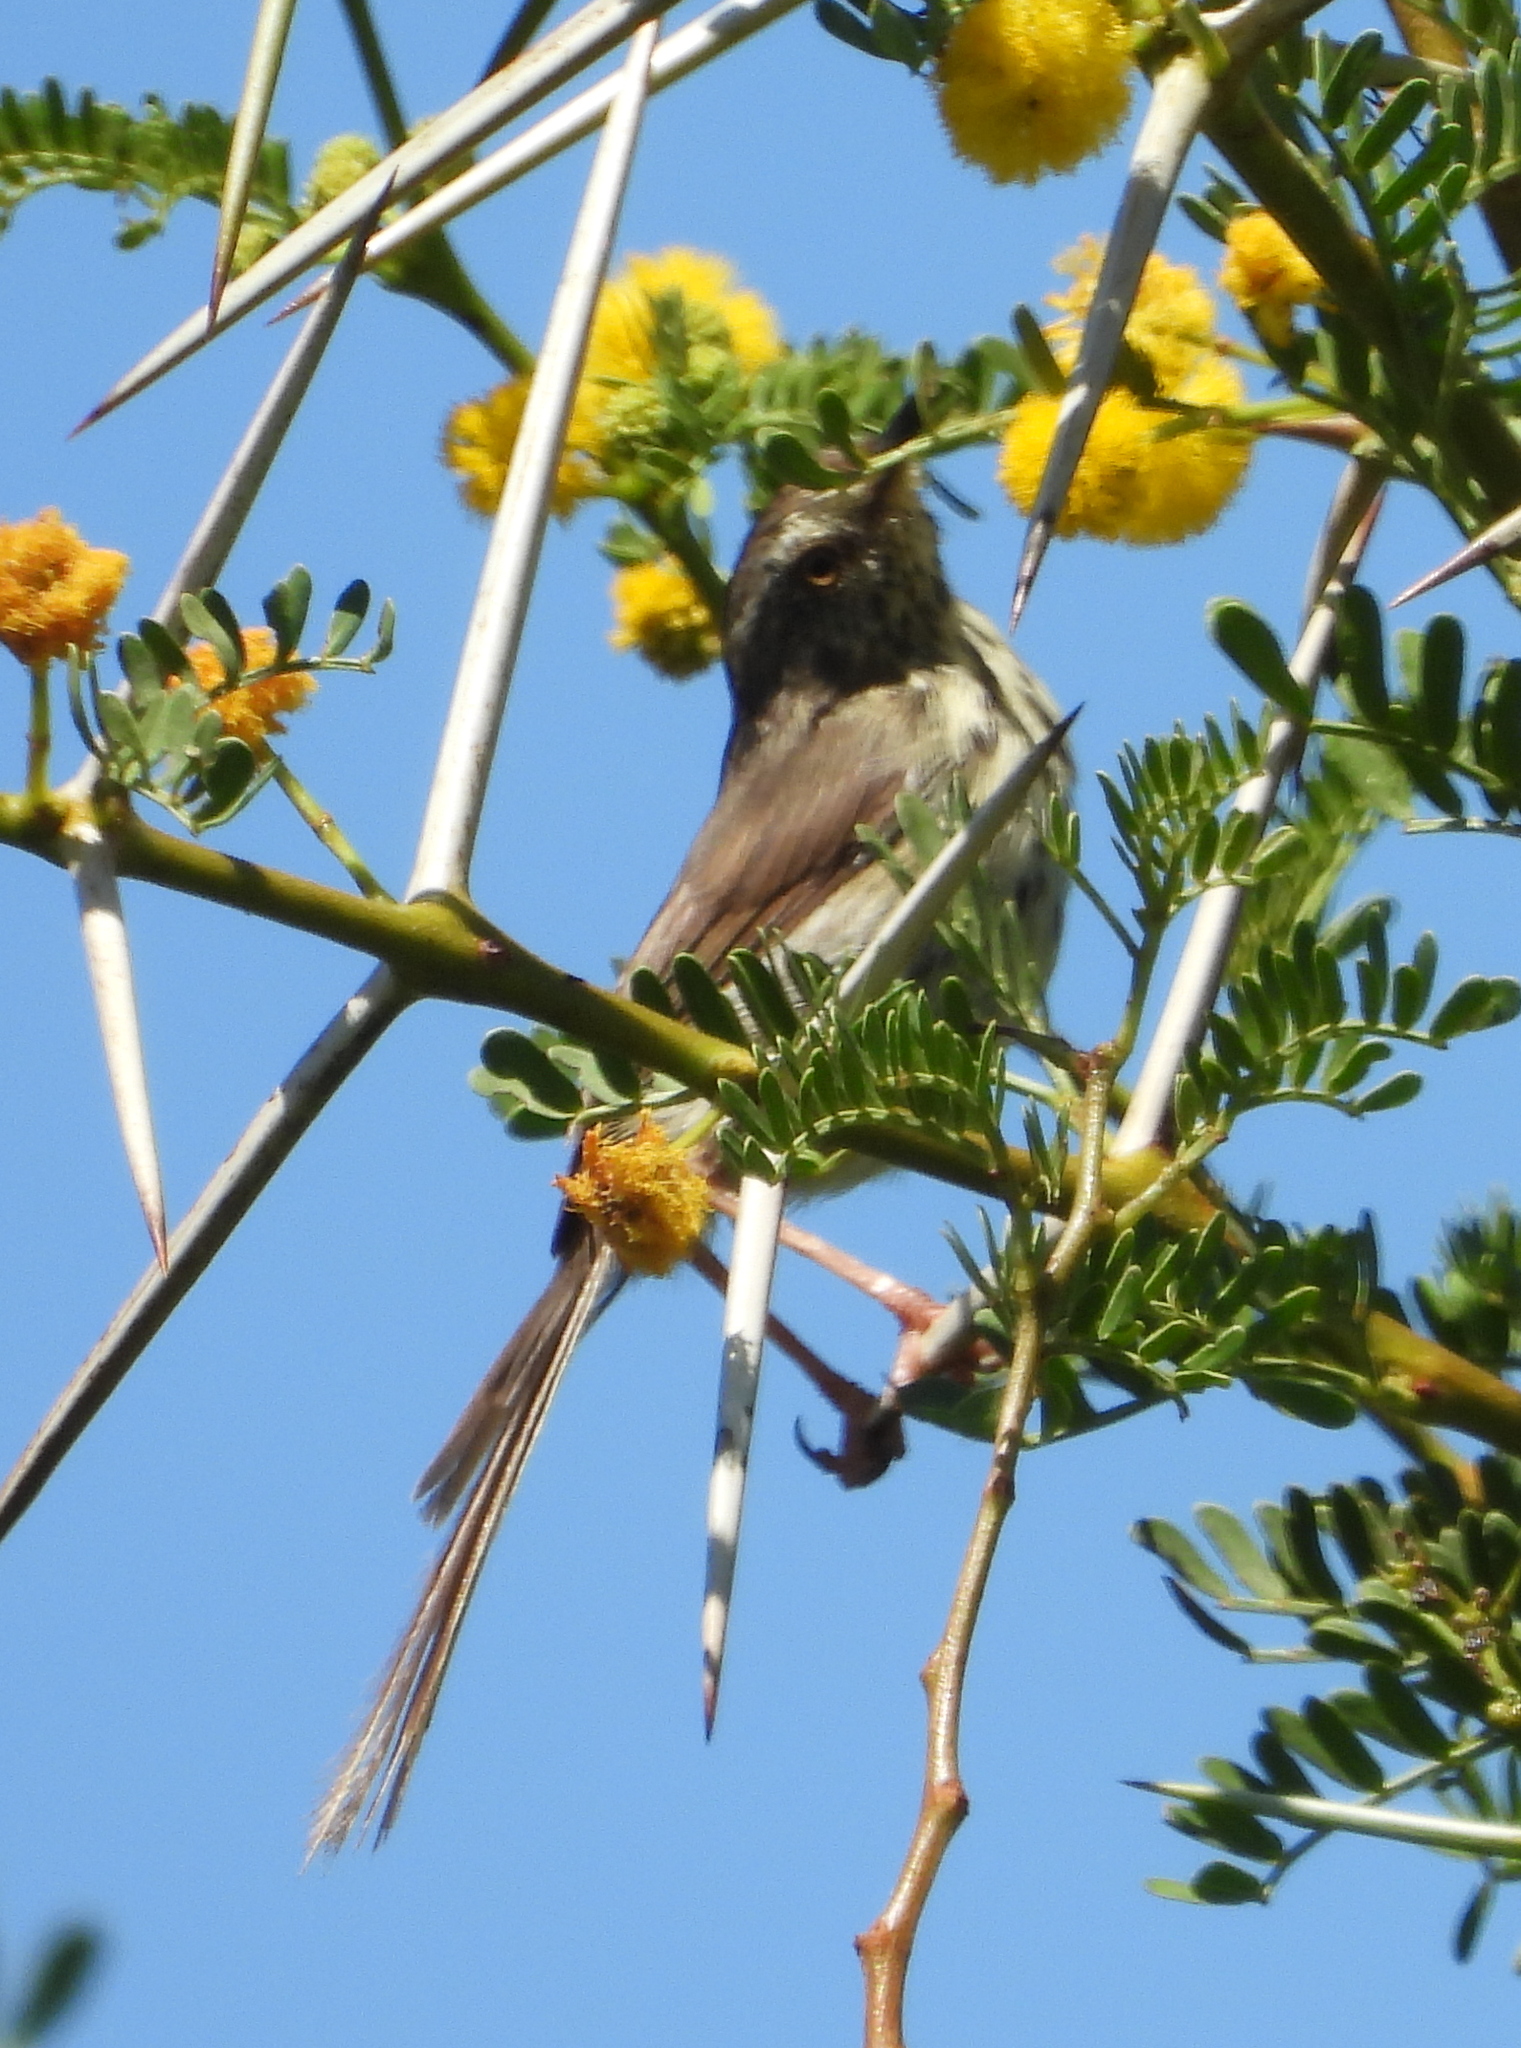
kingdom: Animalia
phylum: Chordata
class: Aves
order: Passeriformes
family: Cisticolidae
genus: Prinia
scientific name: Prinia maculosa
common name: Karoo prinia
